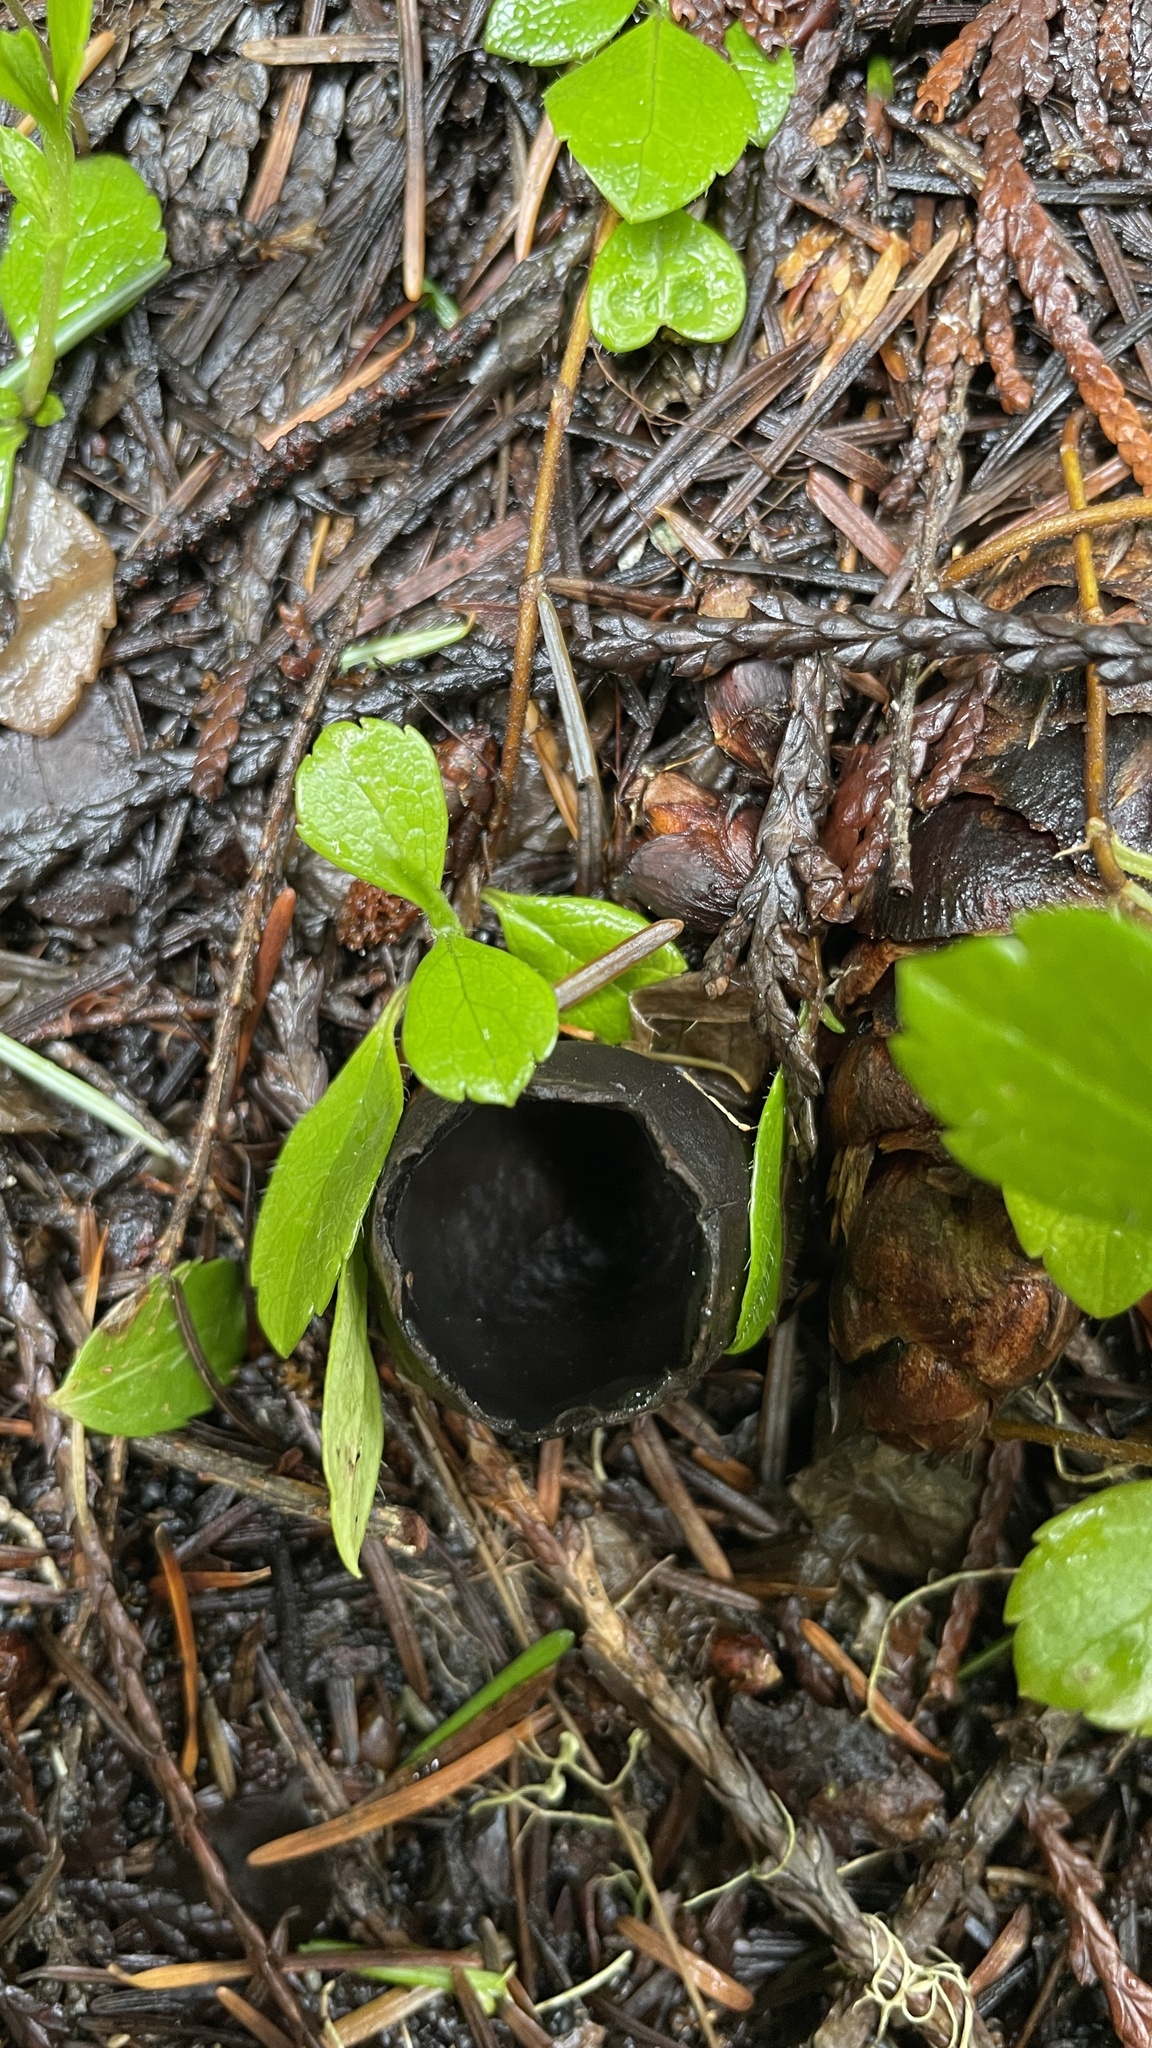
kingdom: Fungi
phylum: Ascomycota
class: Pezizomycetes
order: Pezizales
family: Chorioactidaceae
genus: Neournula
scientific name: Neournula nordmanensis
